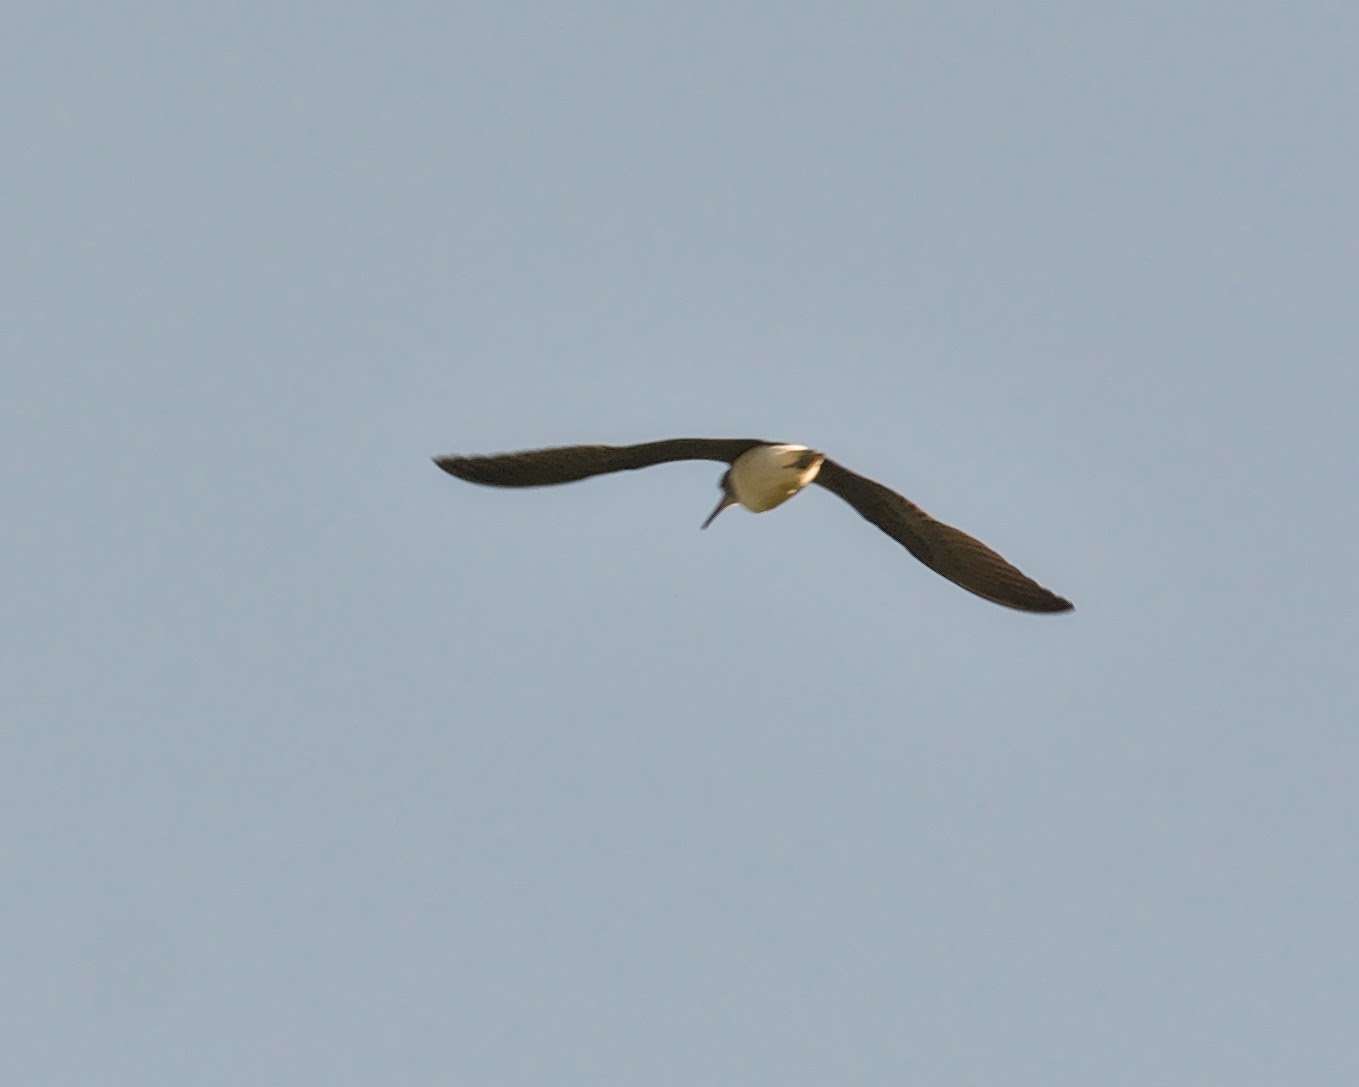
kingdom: Animalia
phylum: Chordata
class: Aves
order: Charadriiformes
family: Scolopacidae
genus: Tringa
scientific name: Tringa ochropus
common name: Green sandpiper
